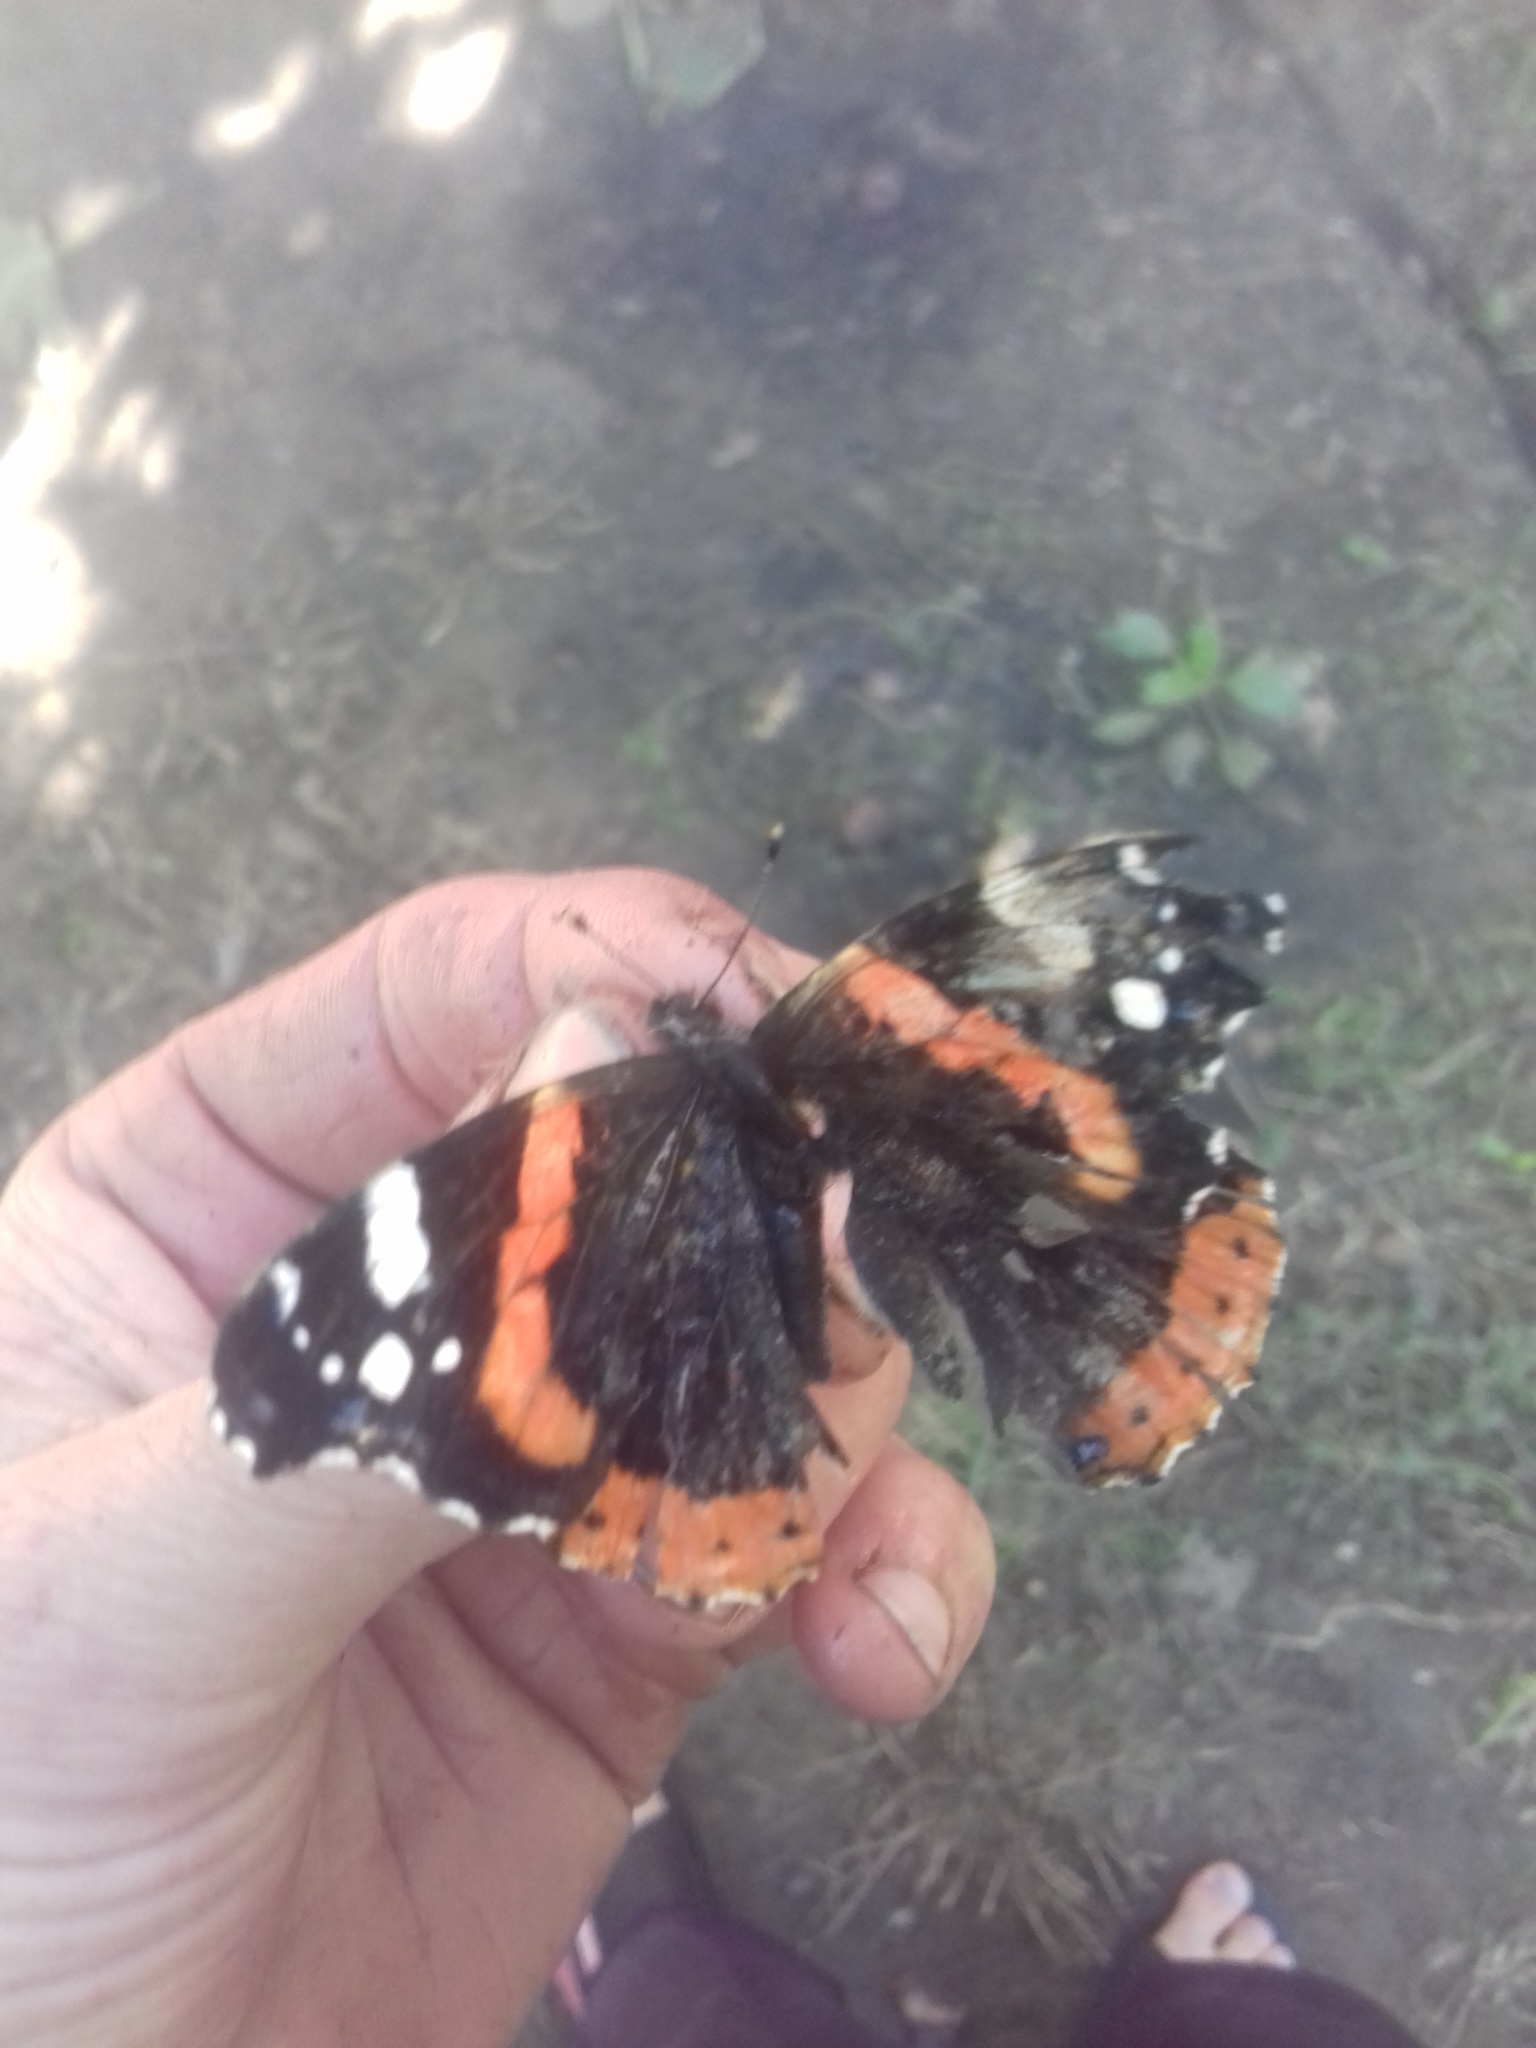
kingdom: Animalia
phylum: Arthropoda
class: Insecta
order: Lepidoptera
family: Nymphalidae
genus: Vanessa
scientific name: Vanessa atalanta
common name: Red admiral
